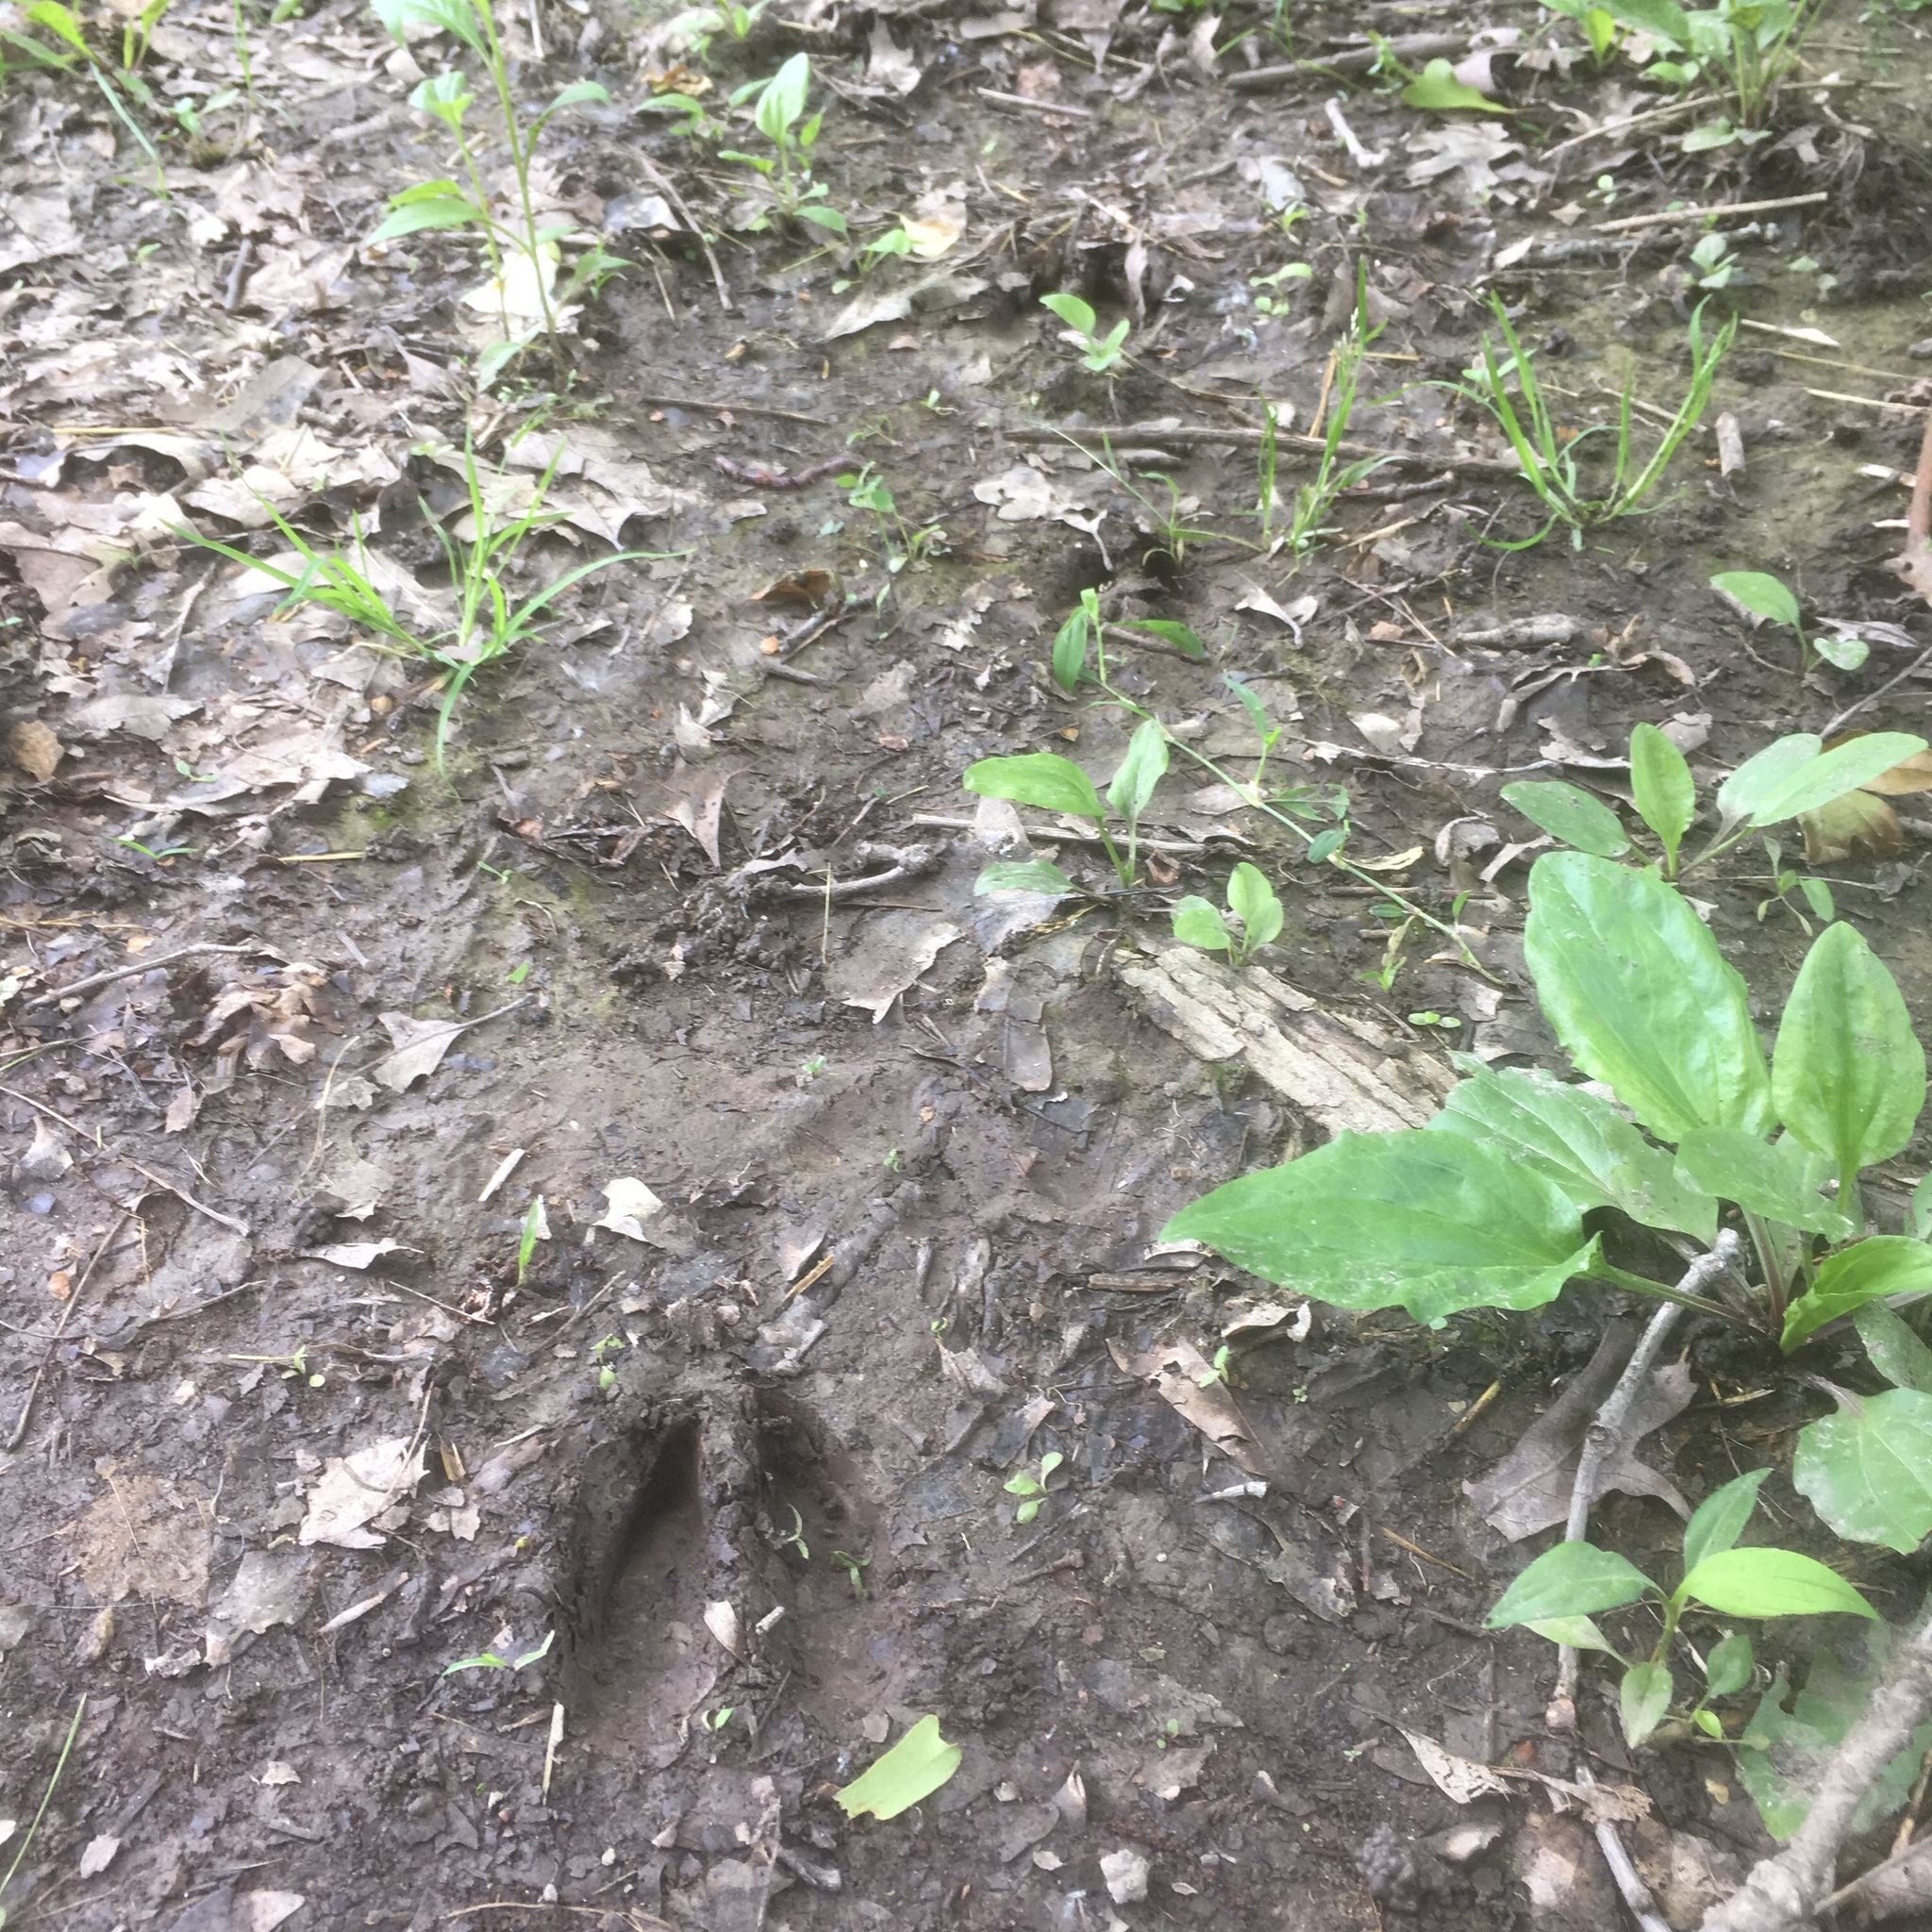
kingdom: Animalia
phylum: Chordata
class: Mammalia
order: Artiodactyla
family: Cervidae
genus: Odocoileus
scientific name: Odocoileus virginianus
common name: White-tailed deer
